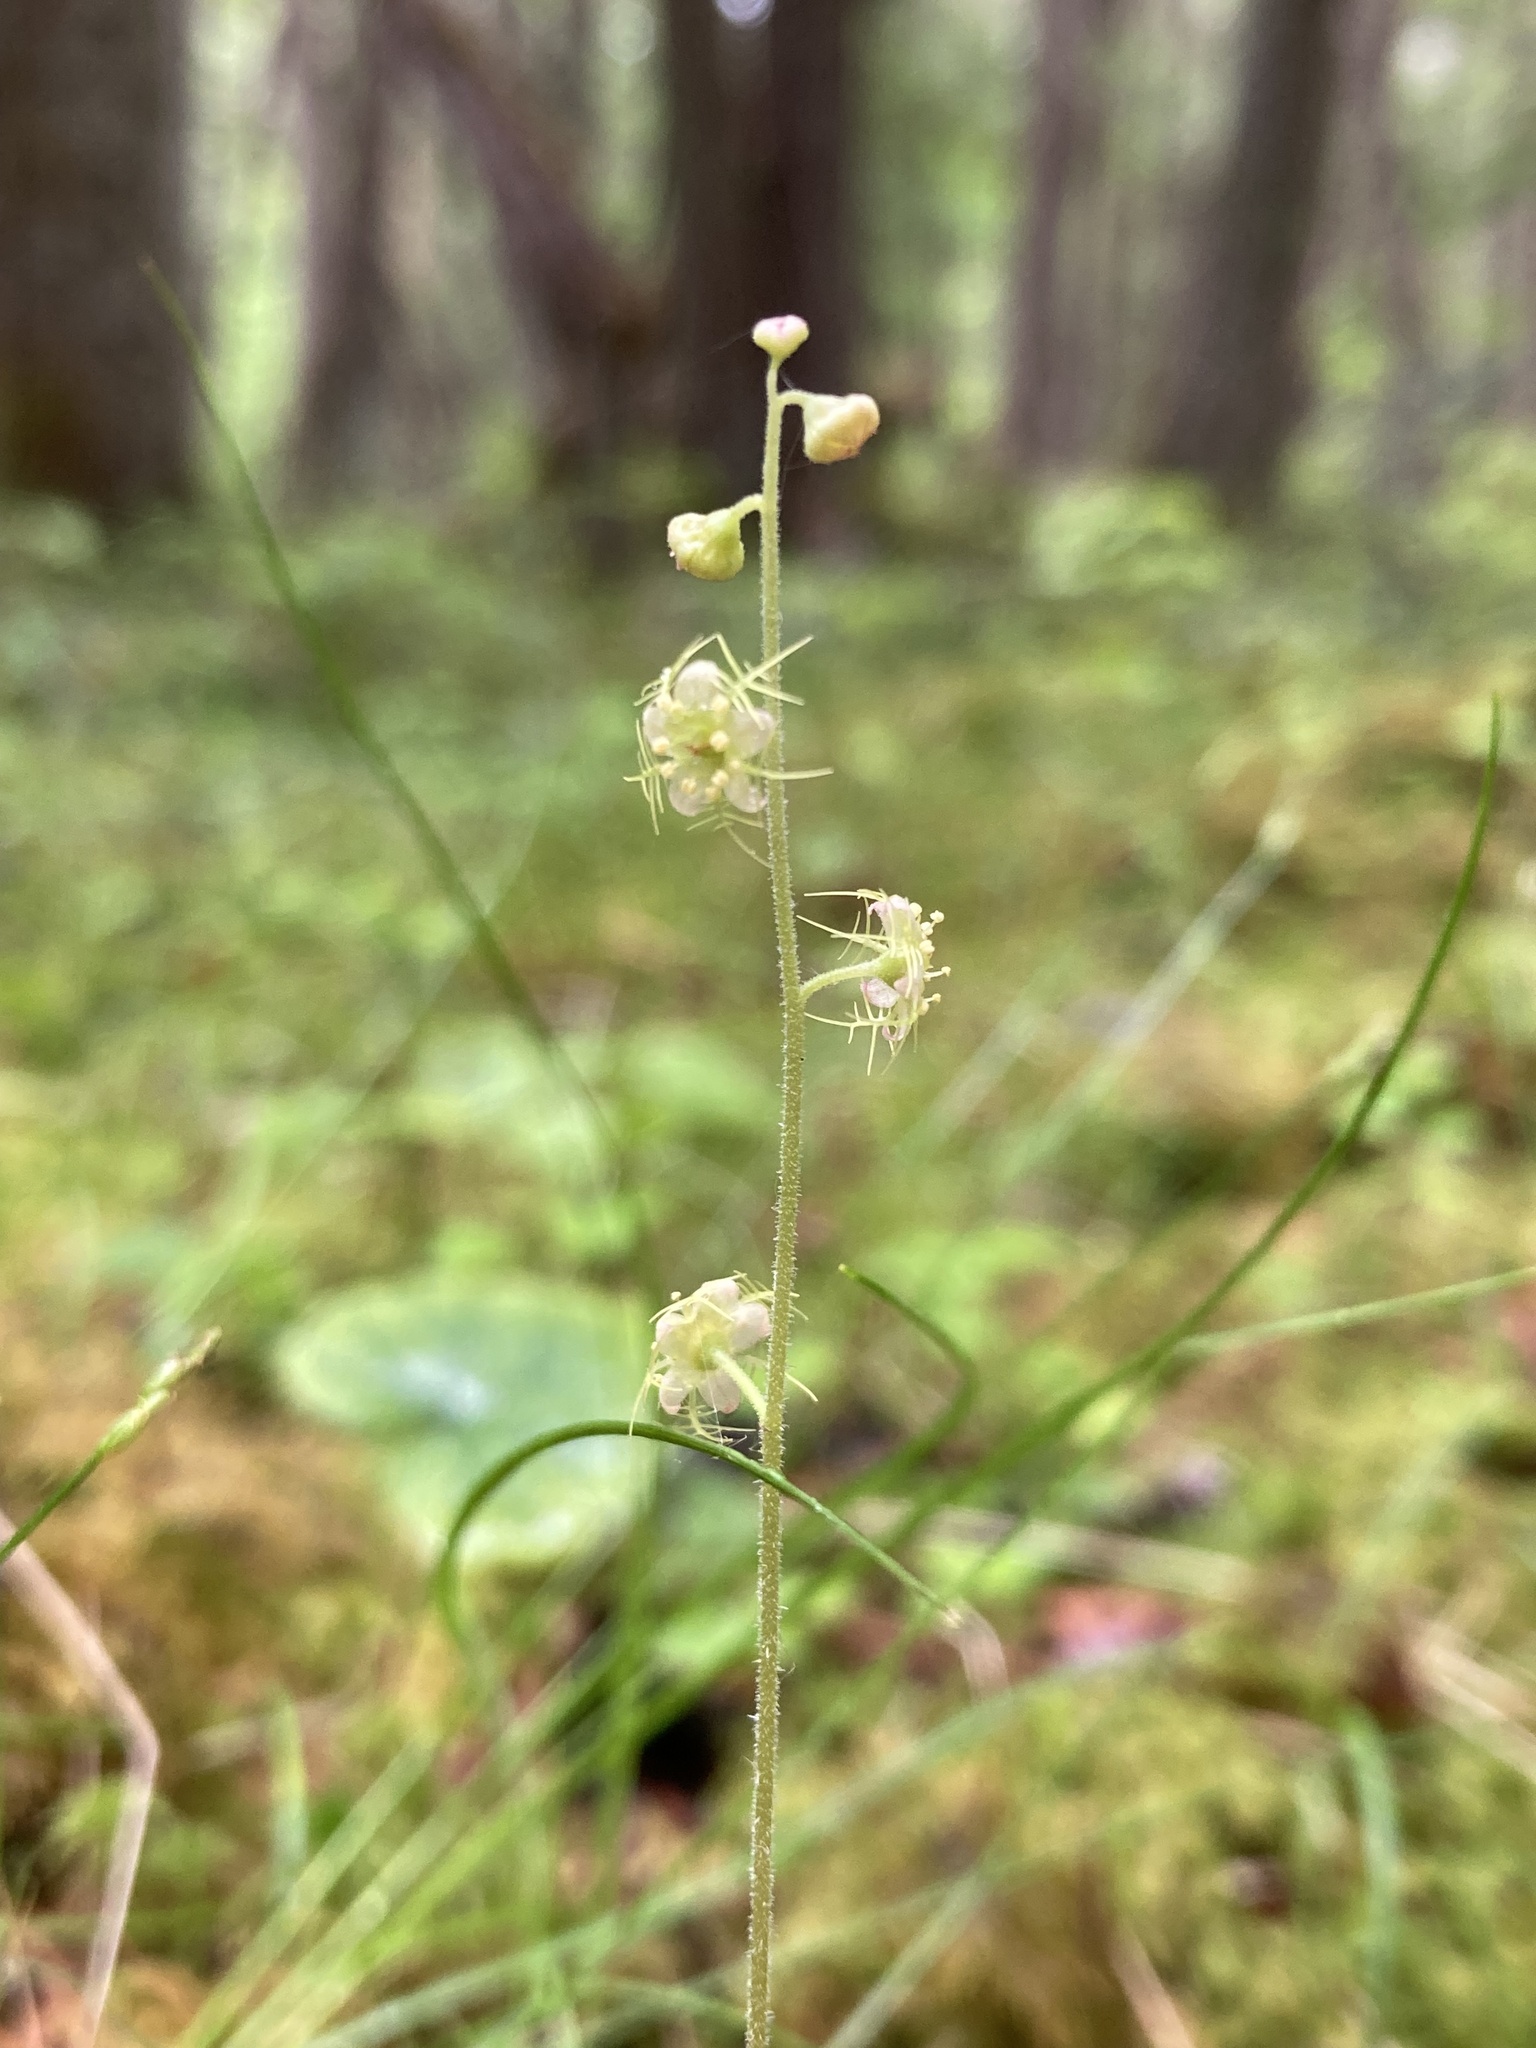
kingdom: Plantae
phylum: Tracheophyta
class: Magnoliopsida
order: Saxifragales
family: Saxifragaceae
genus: Mitella
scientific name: Mitella nuda
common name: Bare-stemmed bishop's-cap
